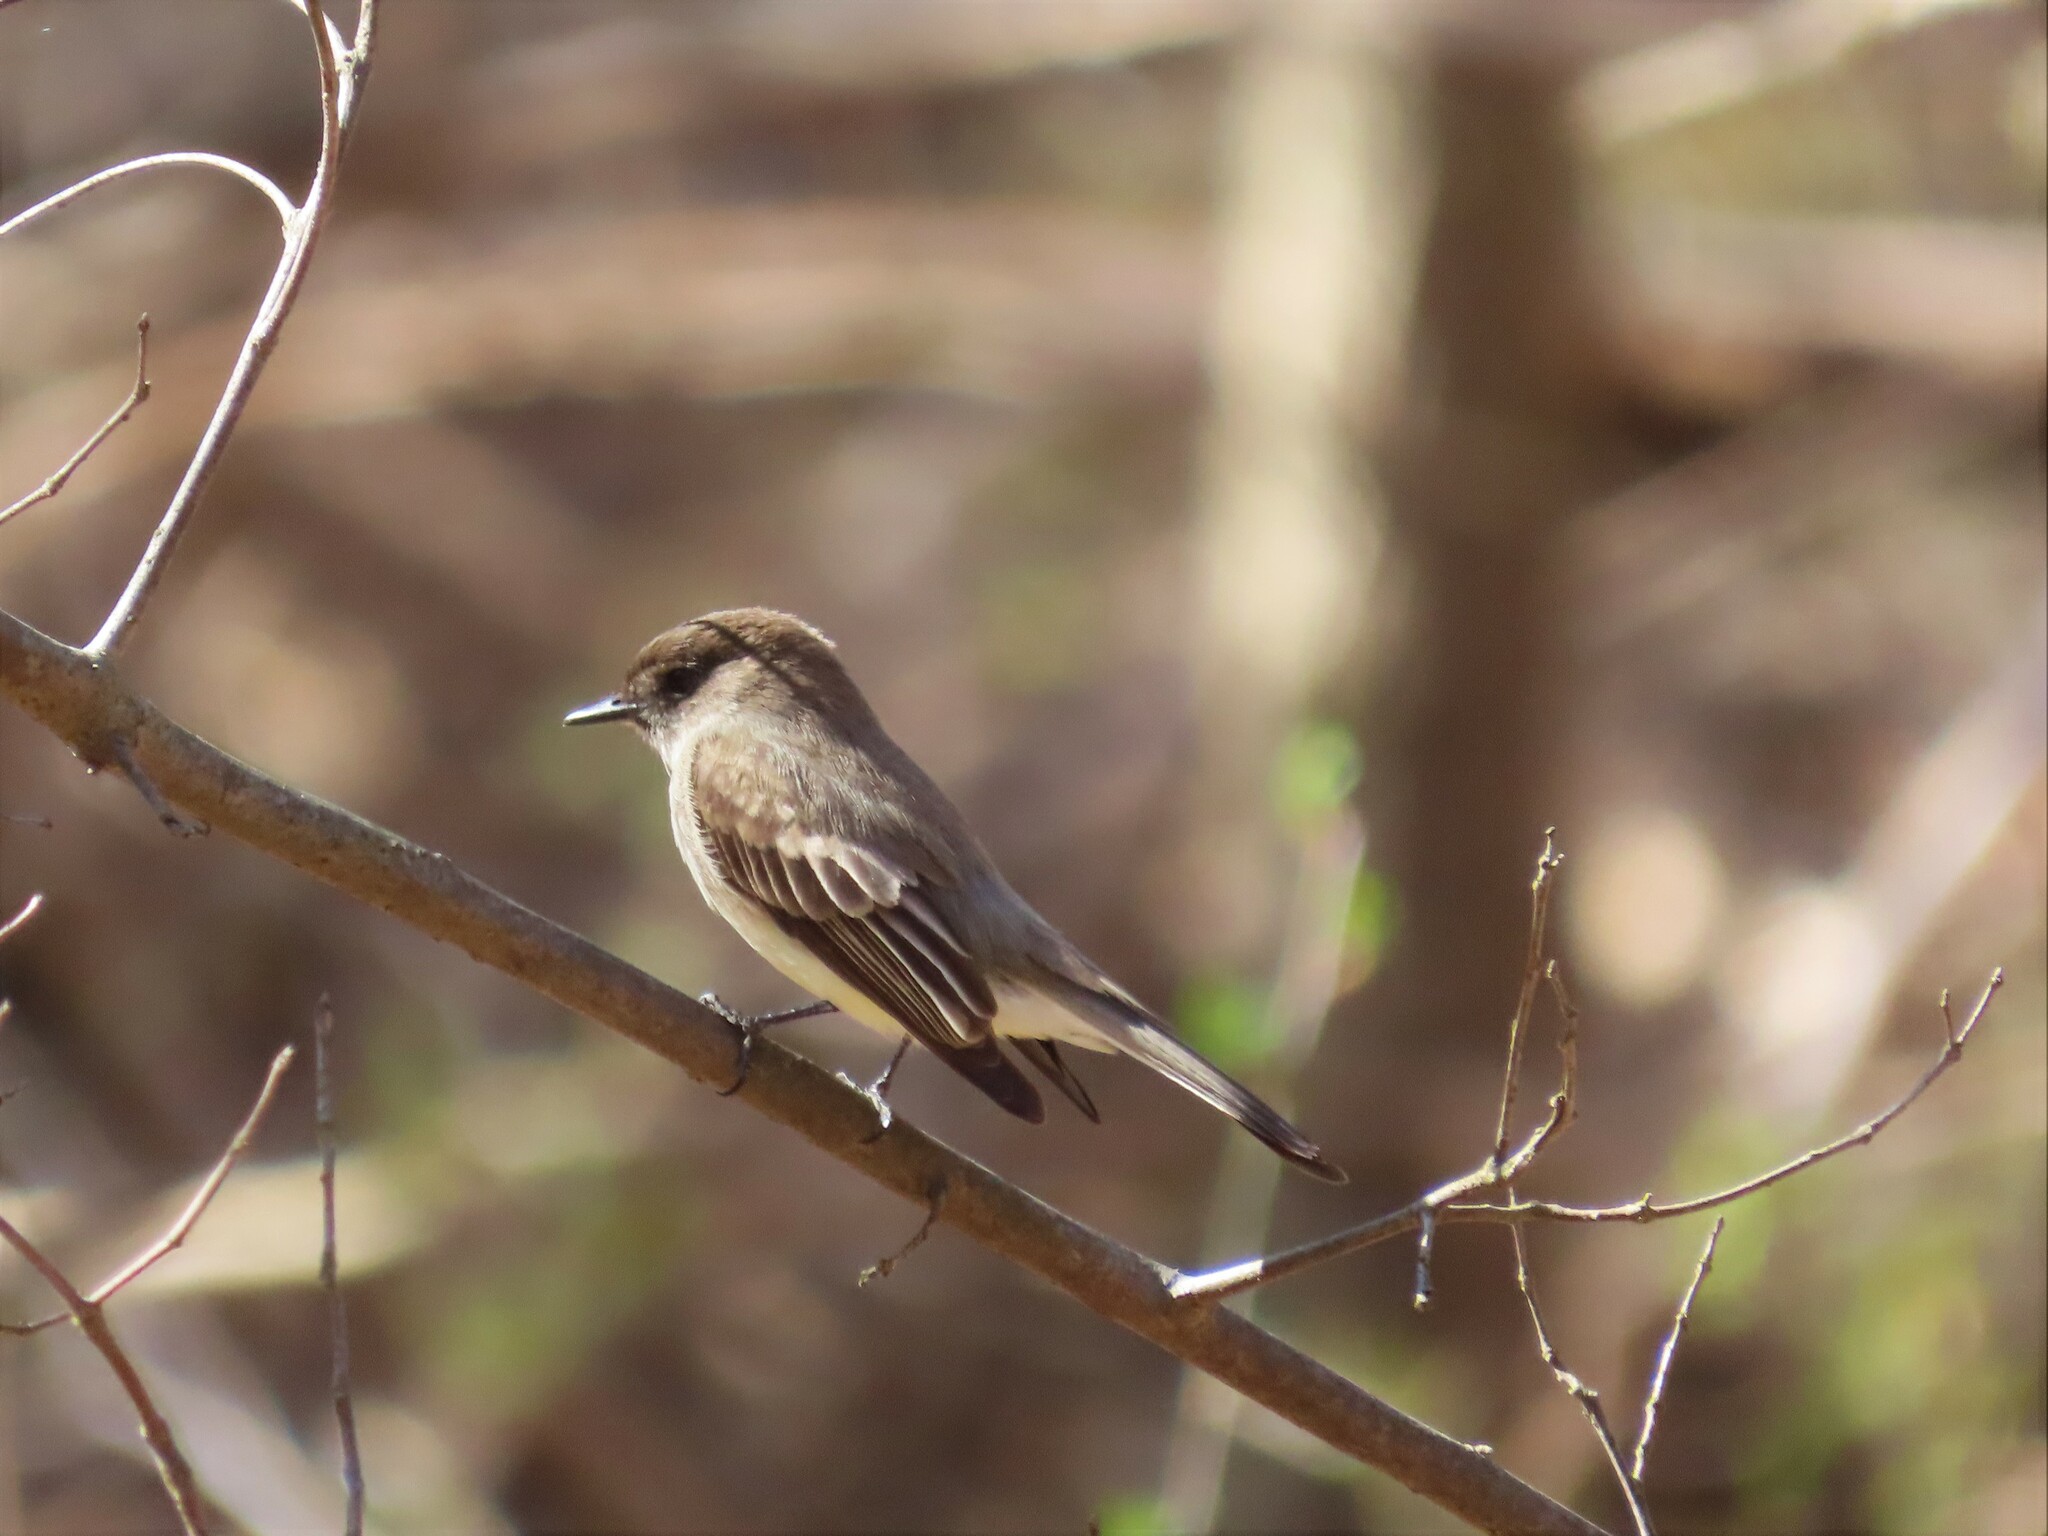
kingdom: Animalia
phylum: Chordata
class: Aves
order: Passeriformes
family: Tyrannidae
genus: Sayornis
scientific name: Sayornis phoebe
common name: Eastern phoebe
